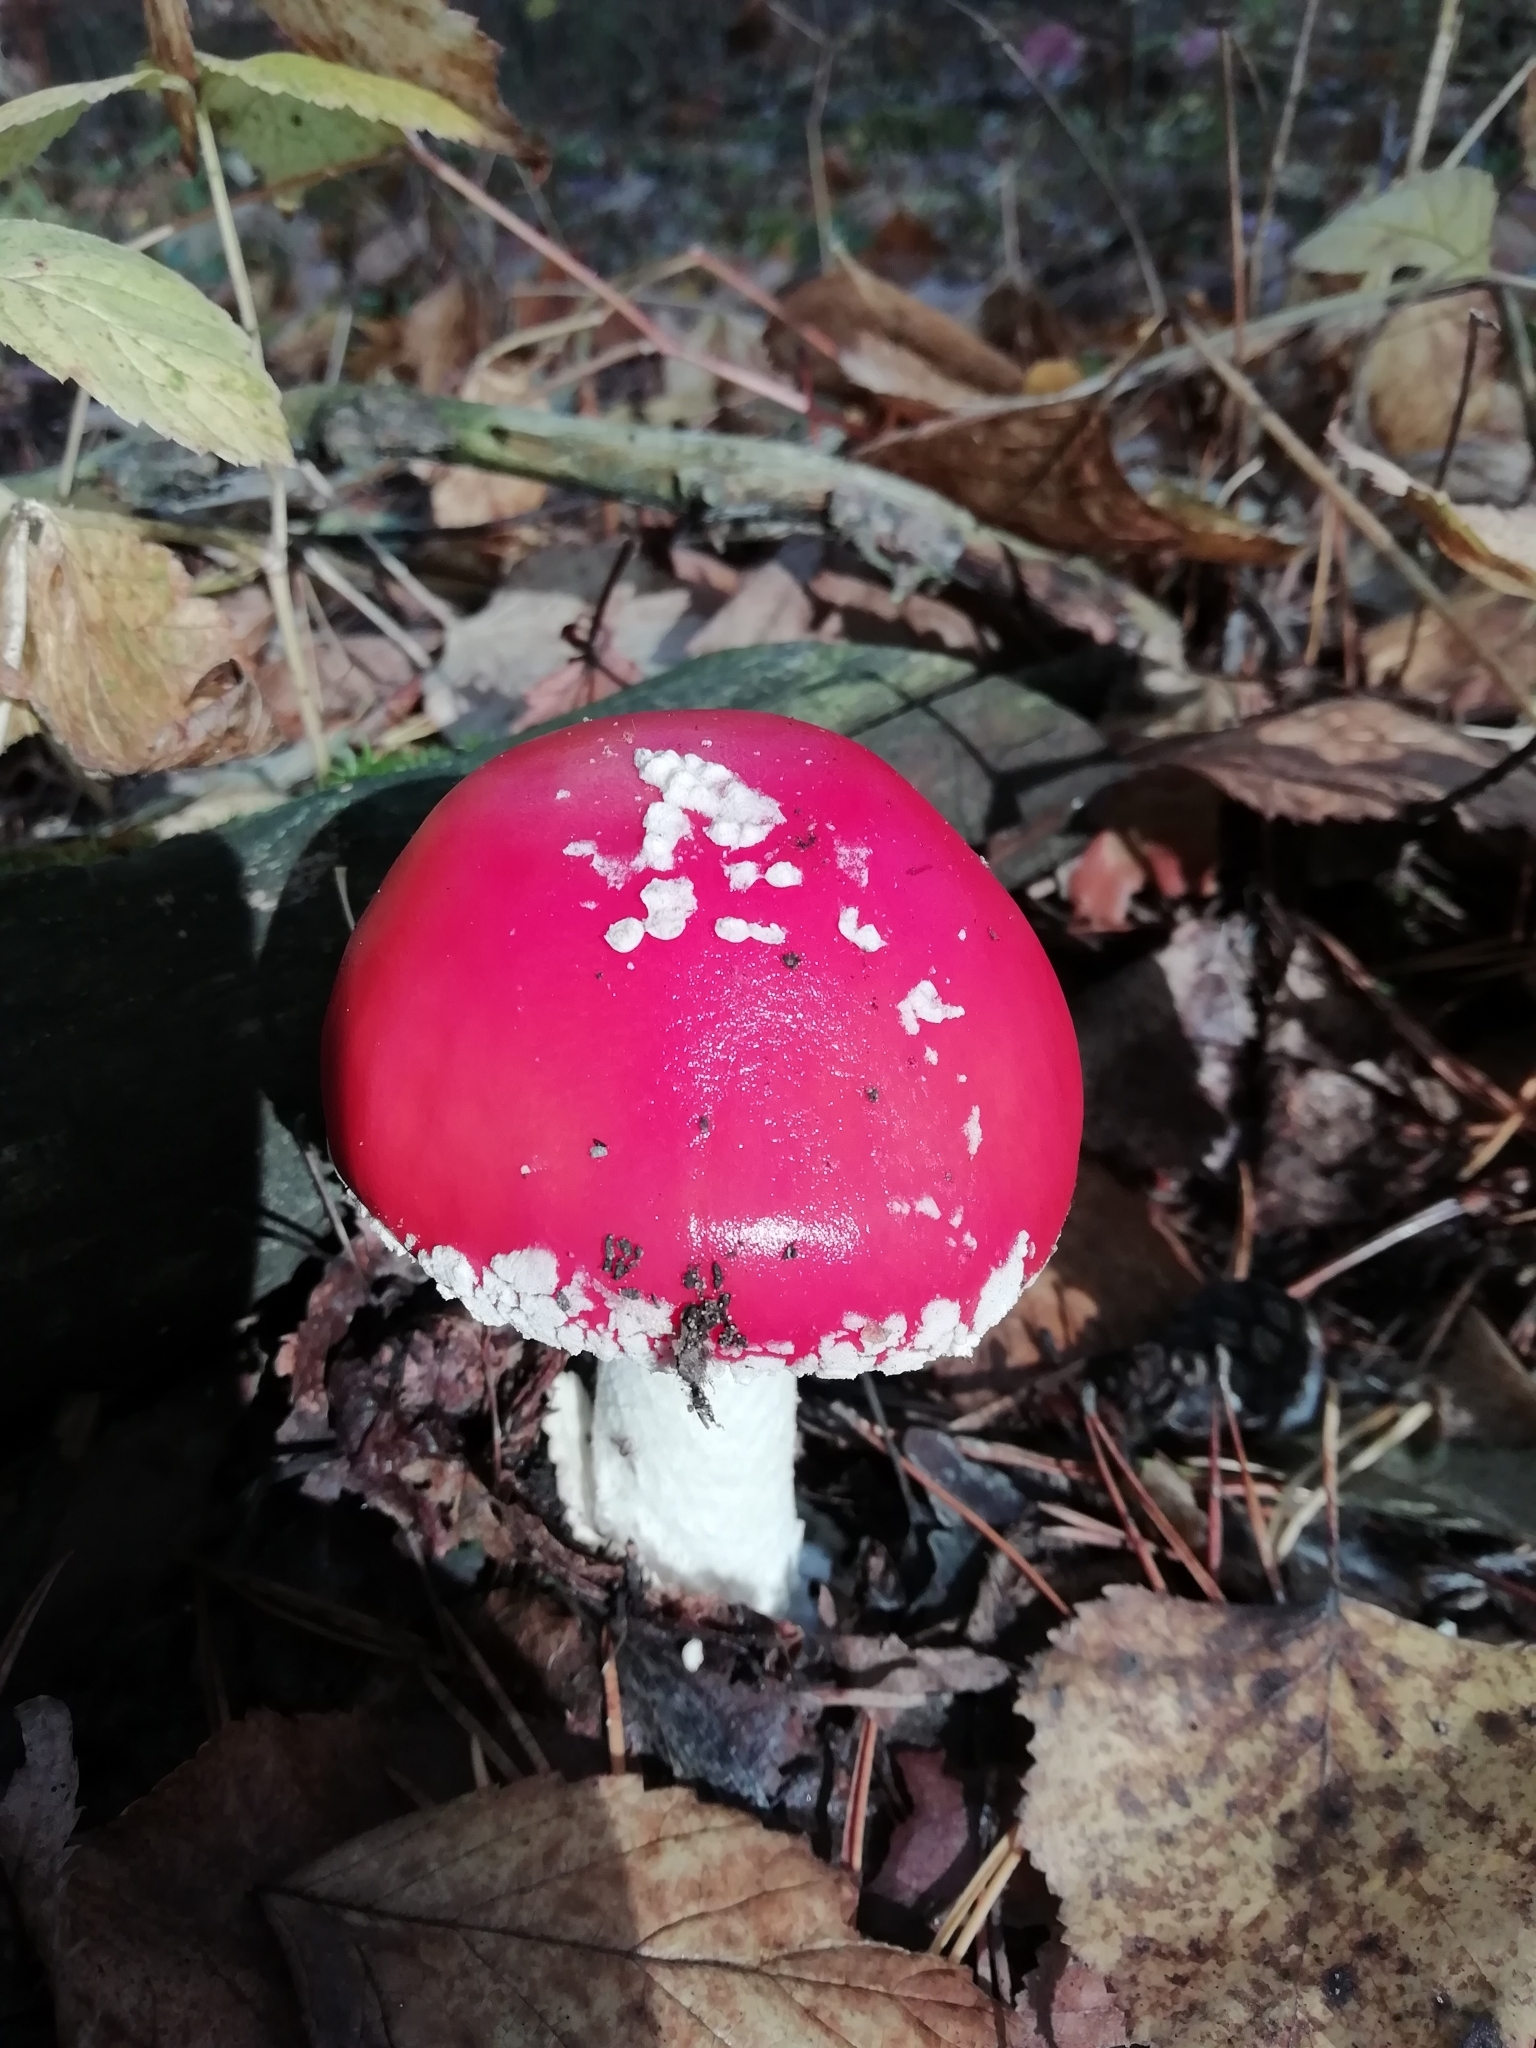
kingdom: Fungi
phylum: Basidiomycota
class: Agaricomycetes
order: Agaricales
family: Amanitaceae
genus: Amanita
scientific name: Amanita muscaria
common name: Fly agaric
